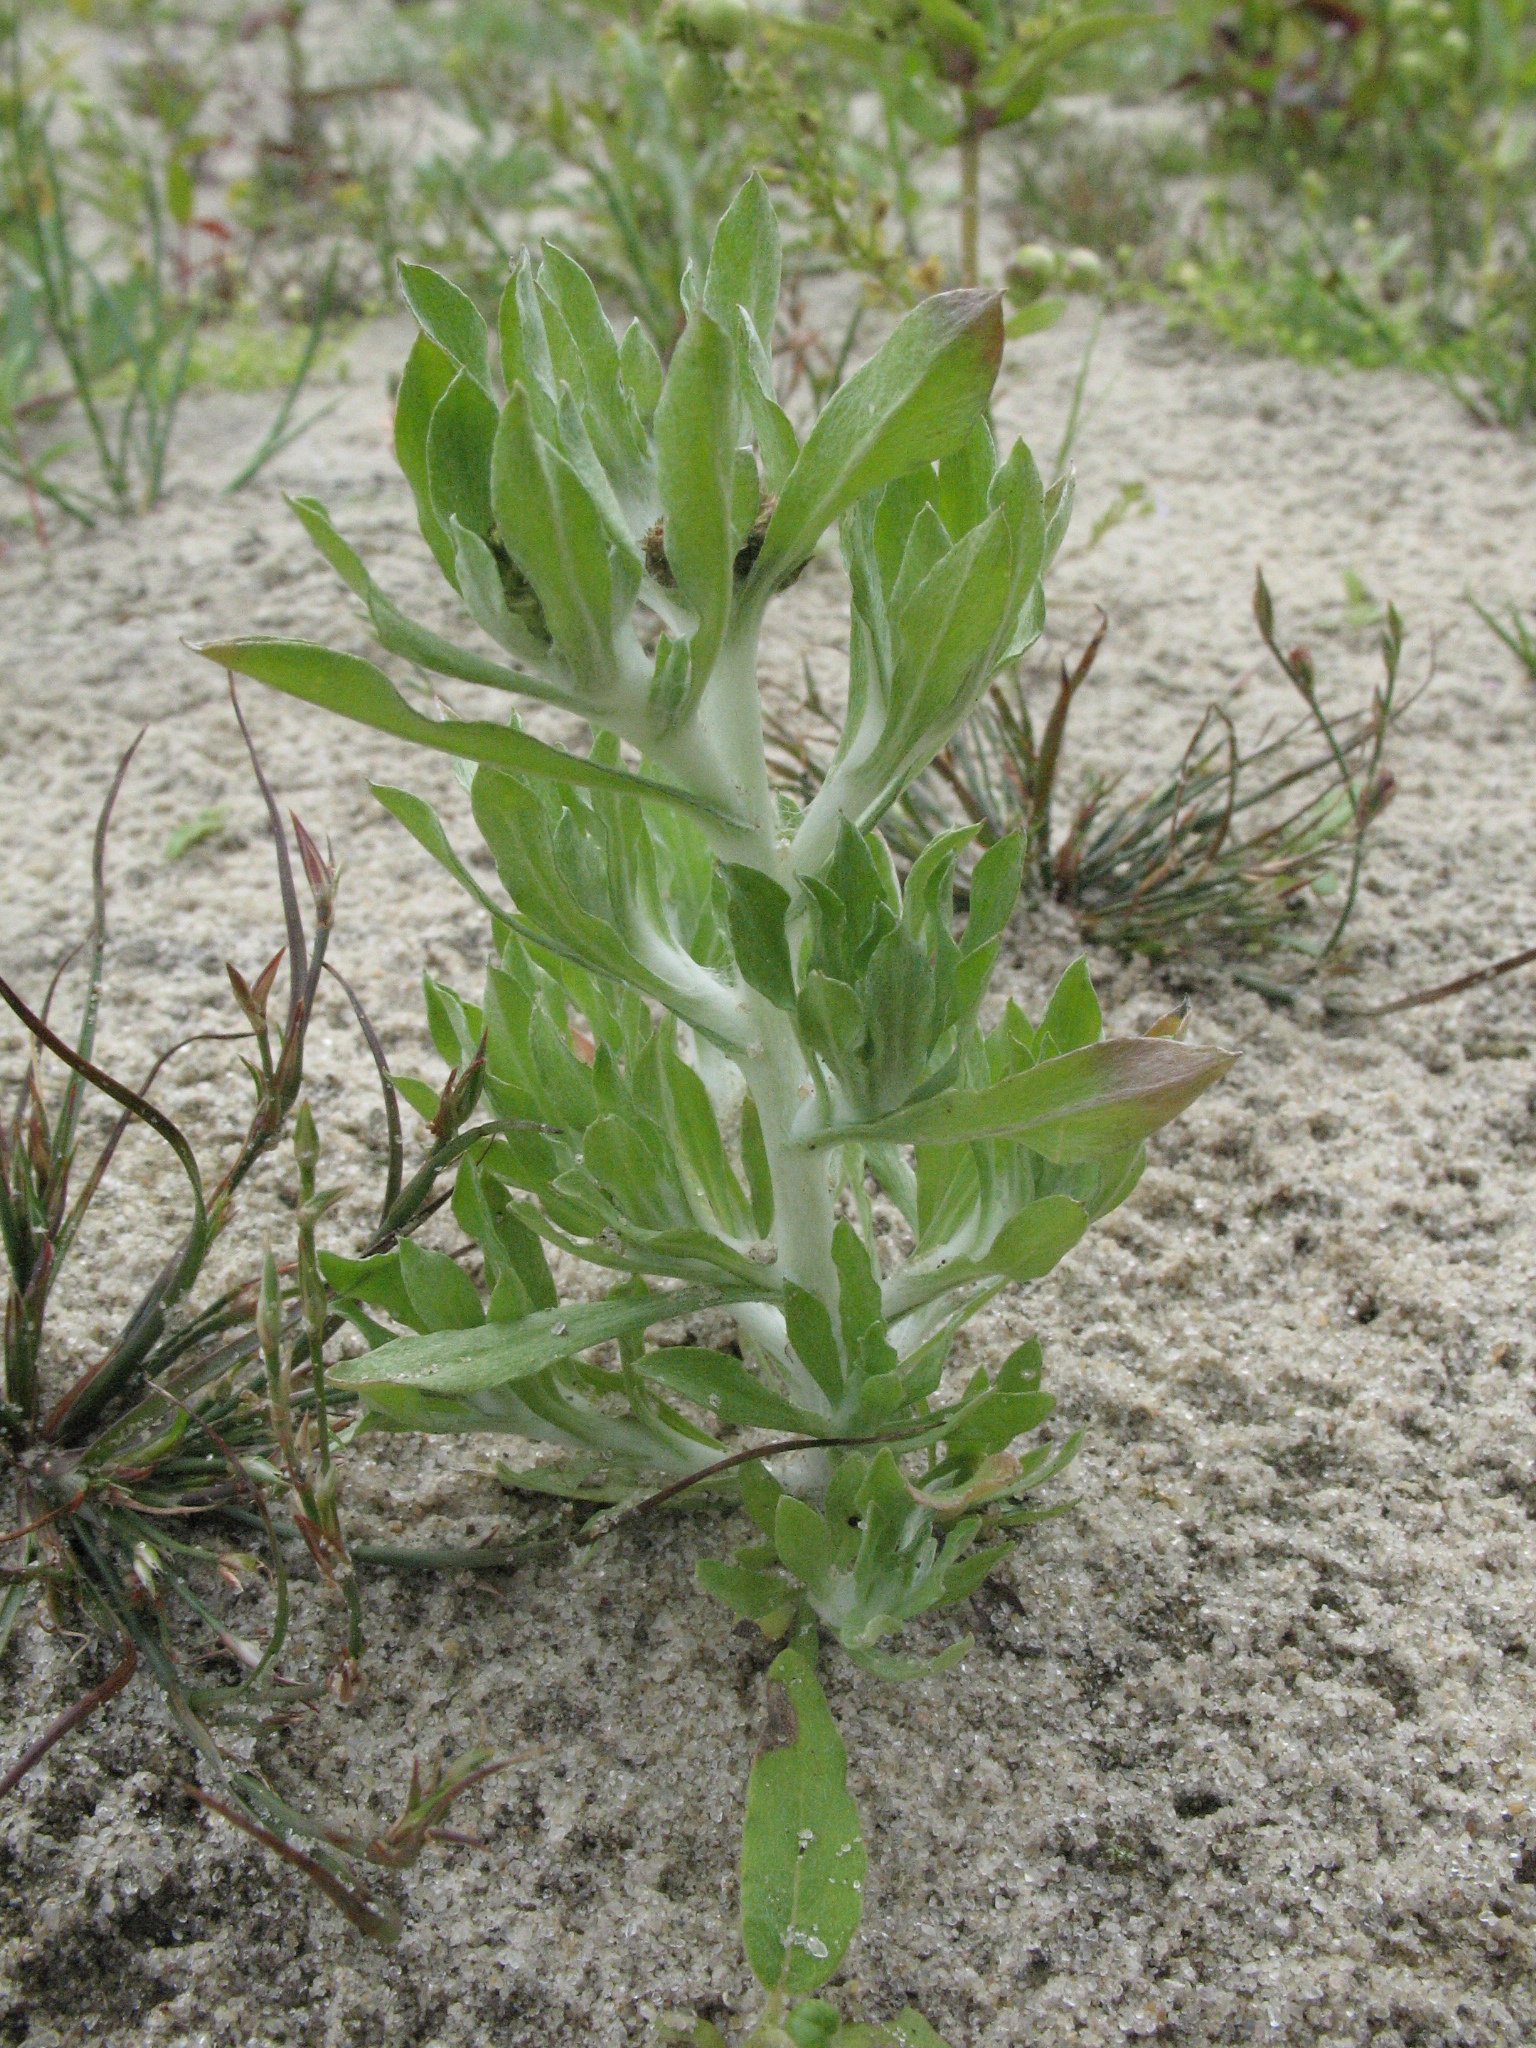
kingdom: Plantae
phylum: Tracheophyta
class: Magnoliopsida
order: Asterales
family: Asteraceae
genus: Gnaphalium
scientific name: Gnaphalium rossicum
